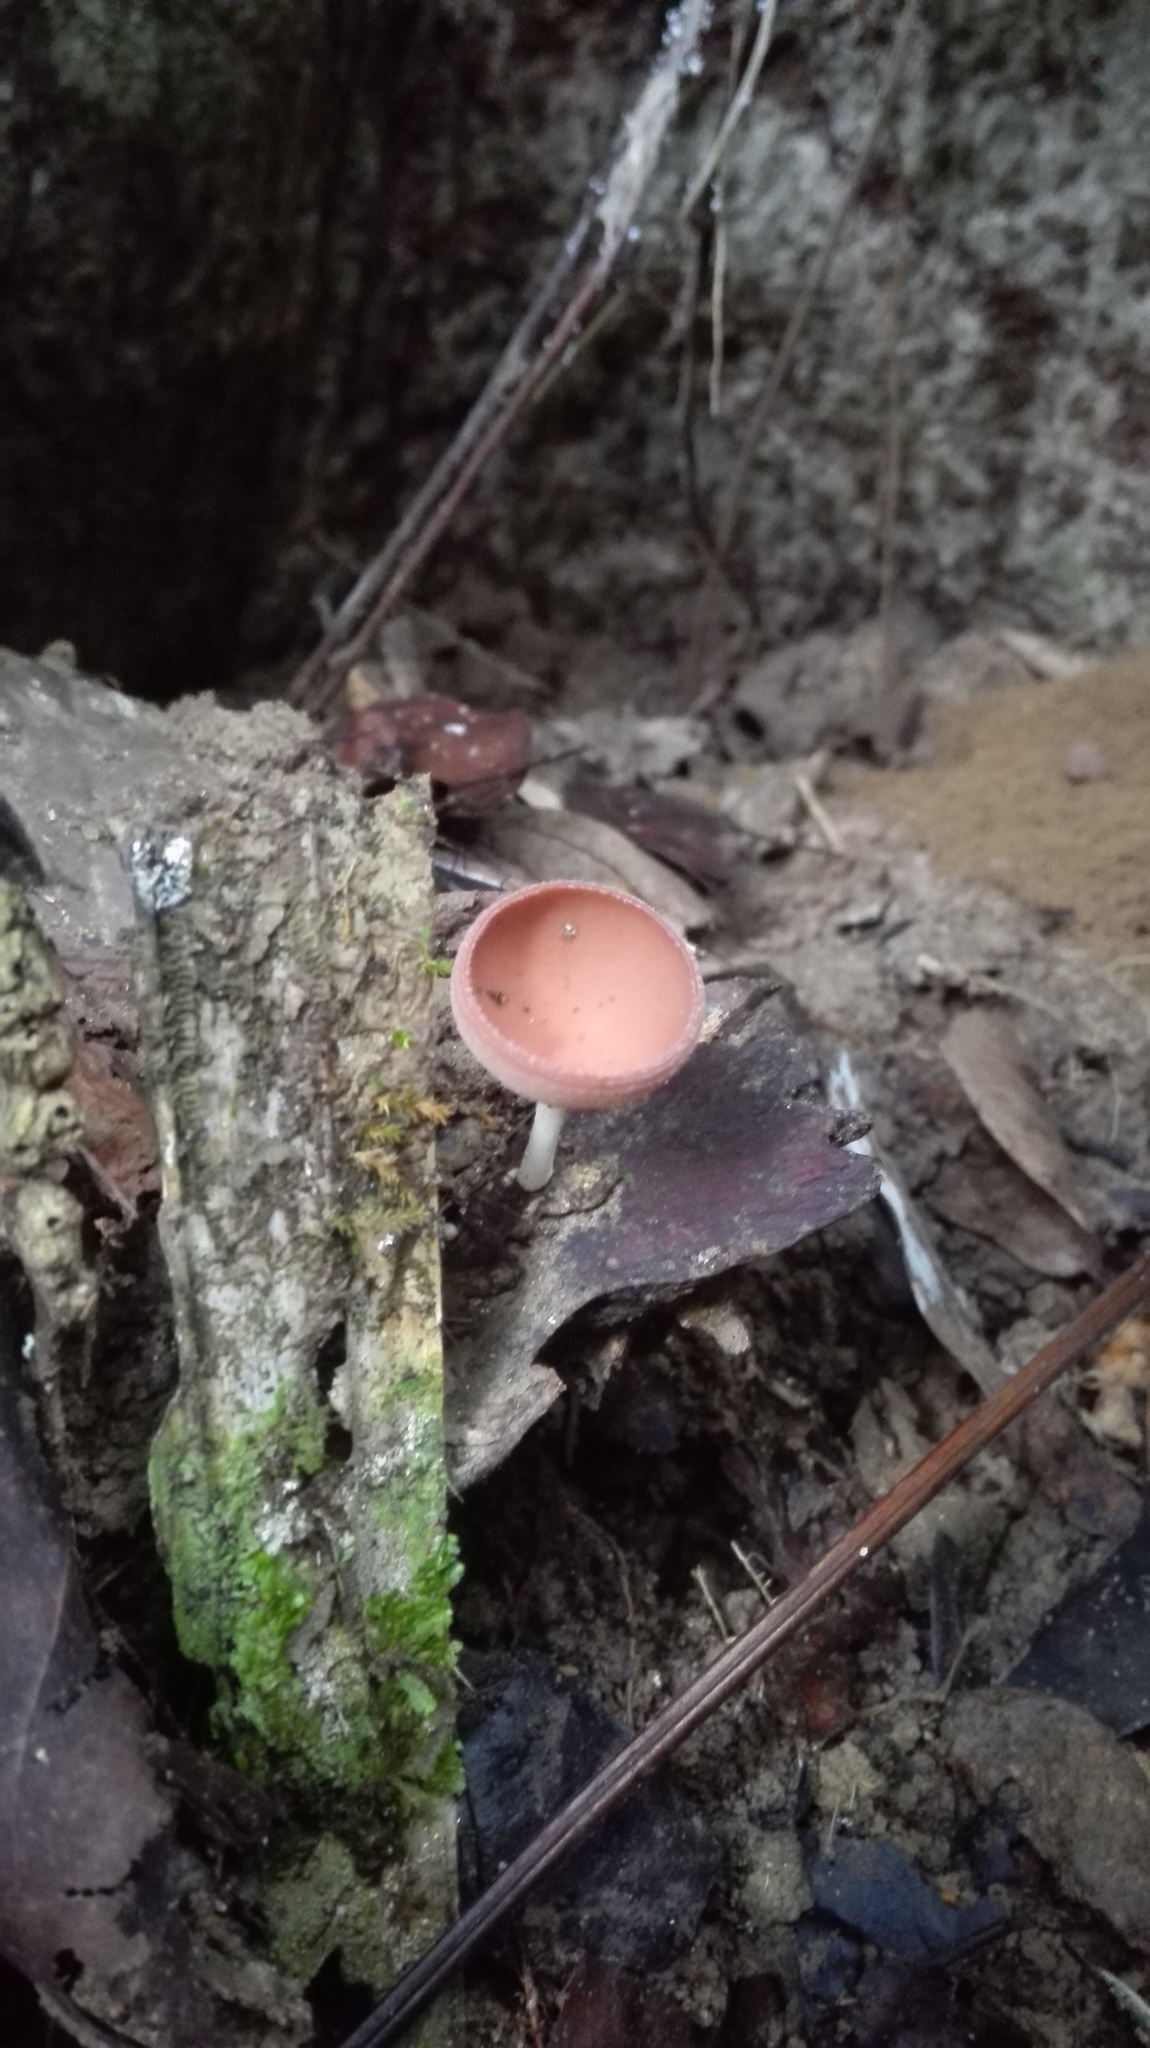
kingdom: Fungi
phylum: Ascomycota
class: Pezizomycetes
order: Pezizales
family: Sarcoscyphaceae
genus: Cookeina
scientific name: Cookeina speciosa
